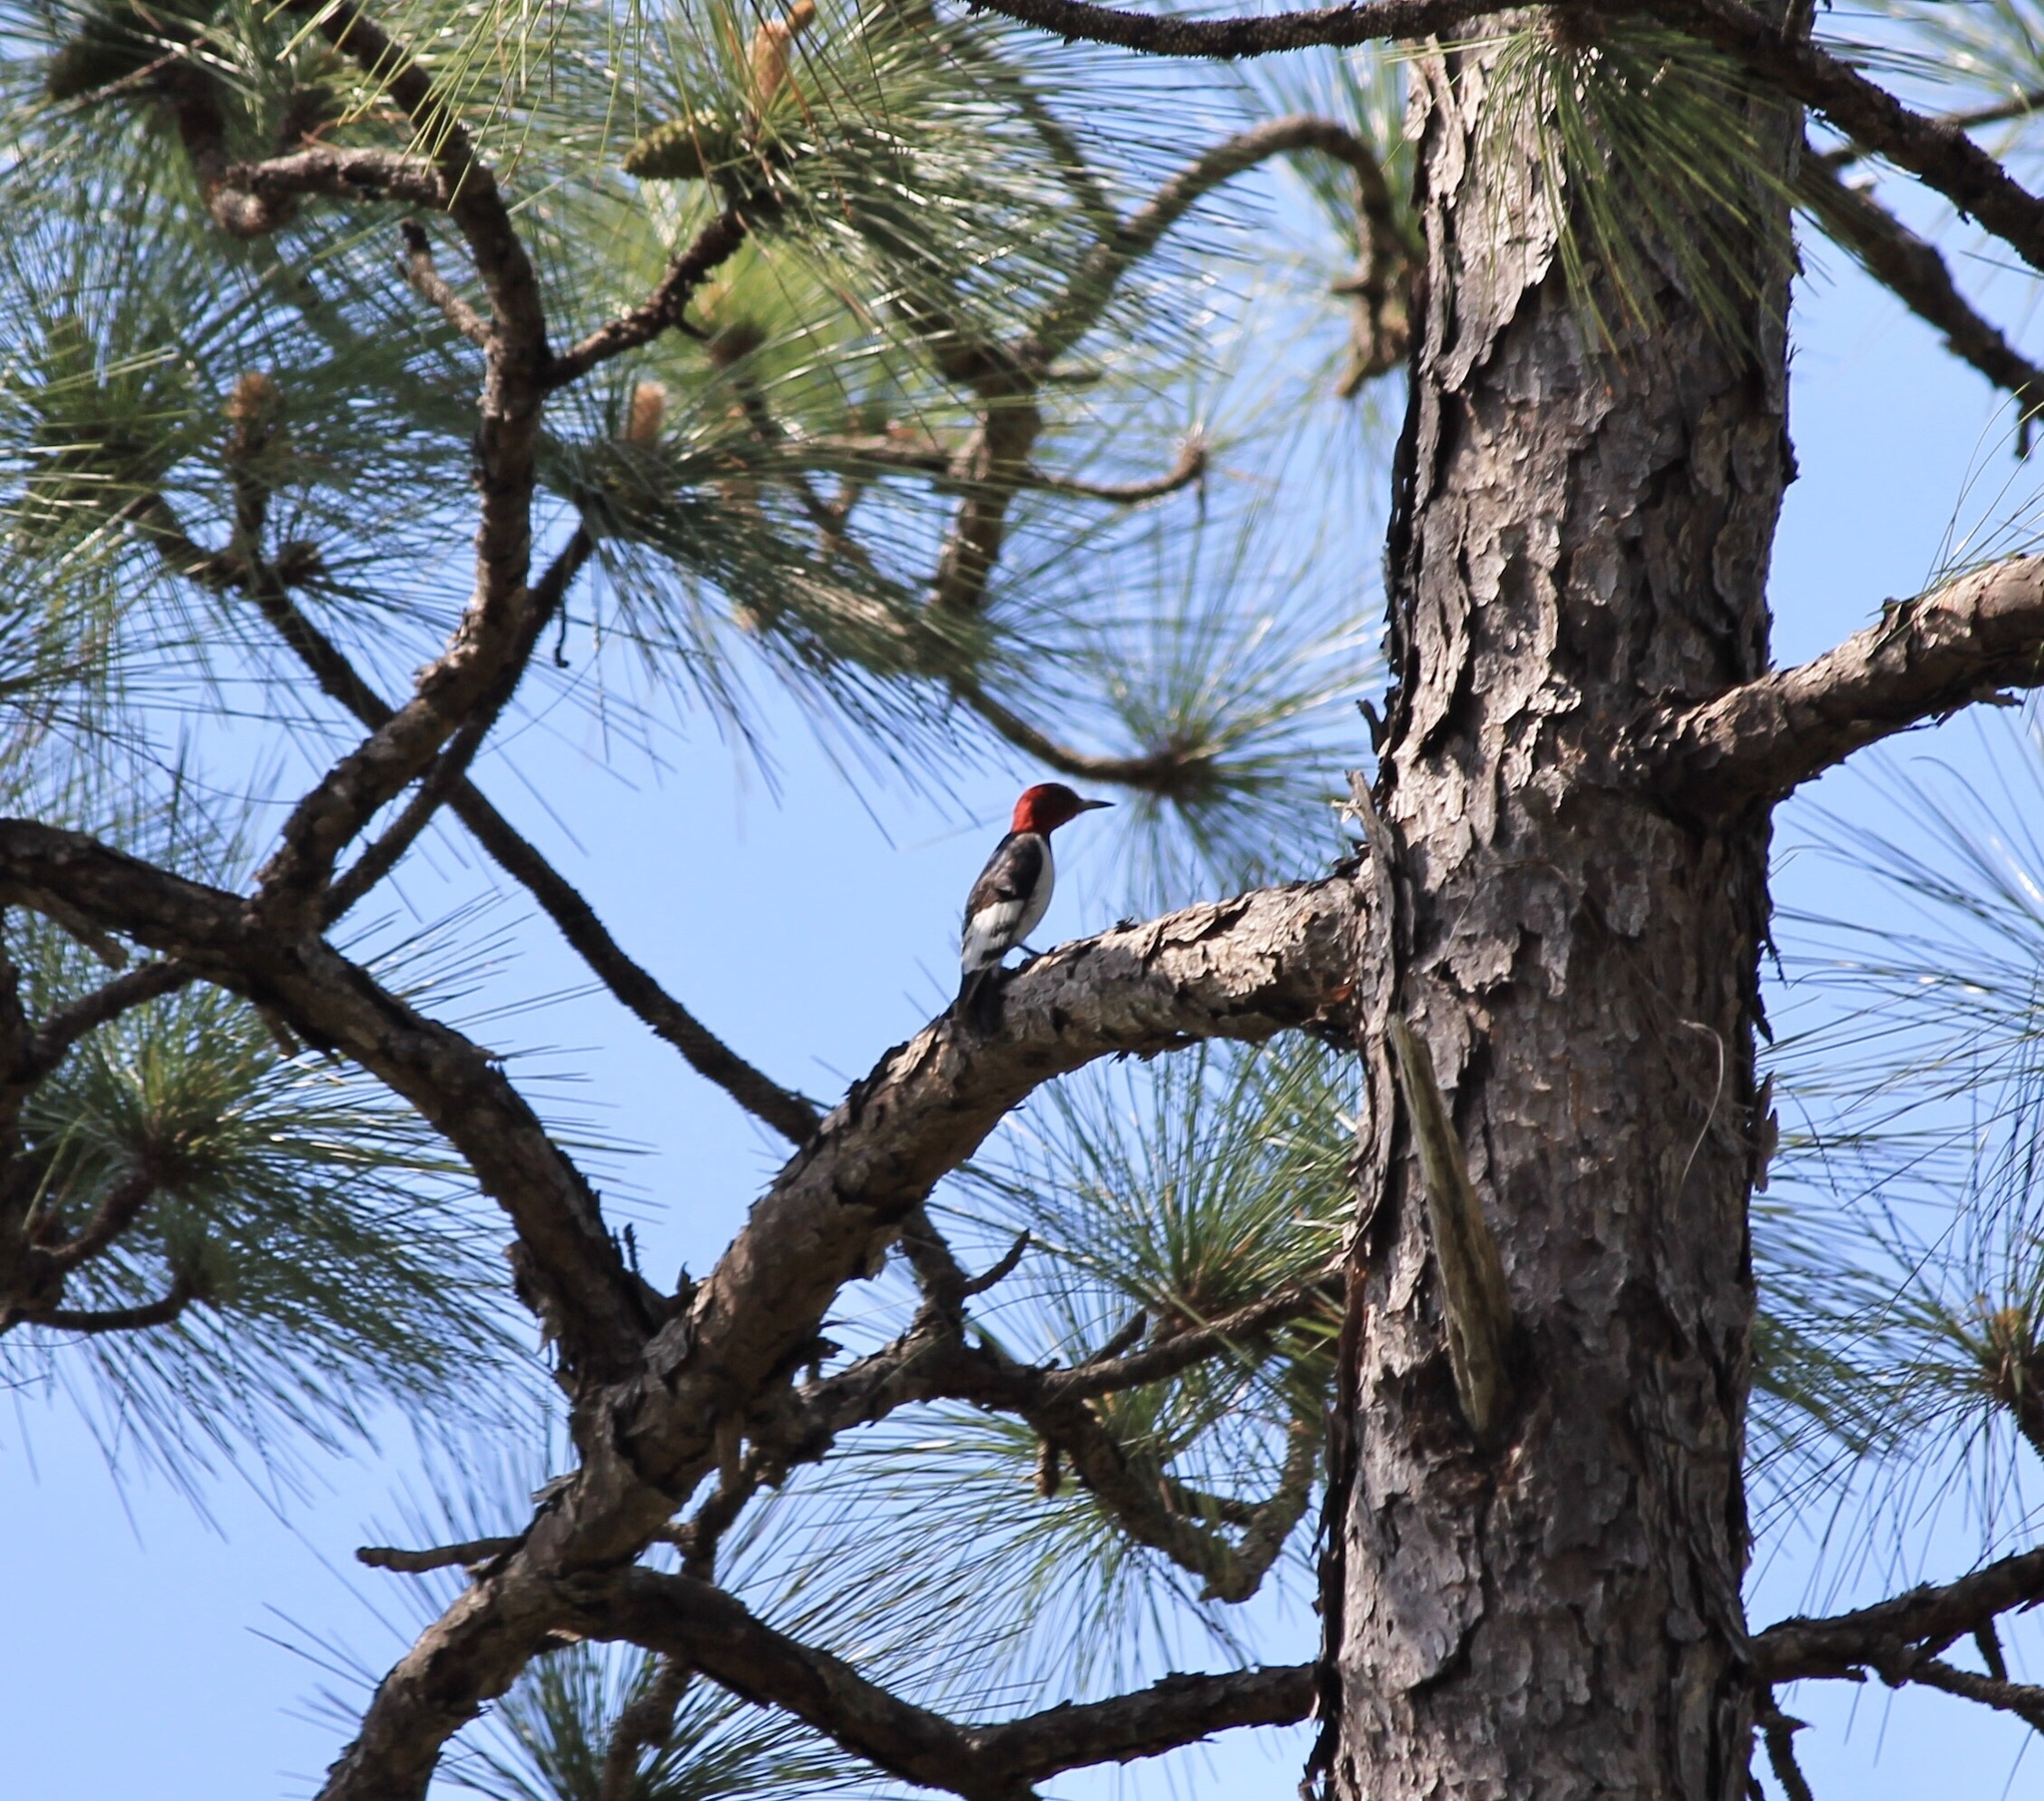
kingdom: Animalia
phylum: Chordata
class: Aves
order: Piciformes
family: Picidae
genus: Melanerpes
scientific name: Melanerpes erythrocephalus
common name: Red-headed woodpecker
